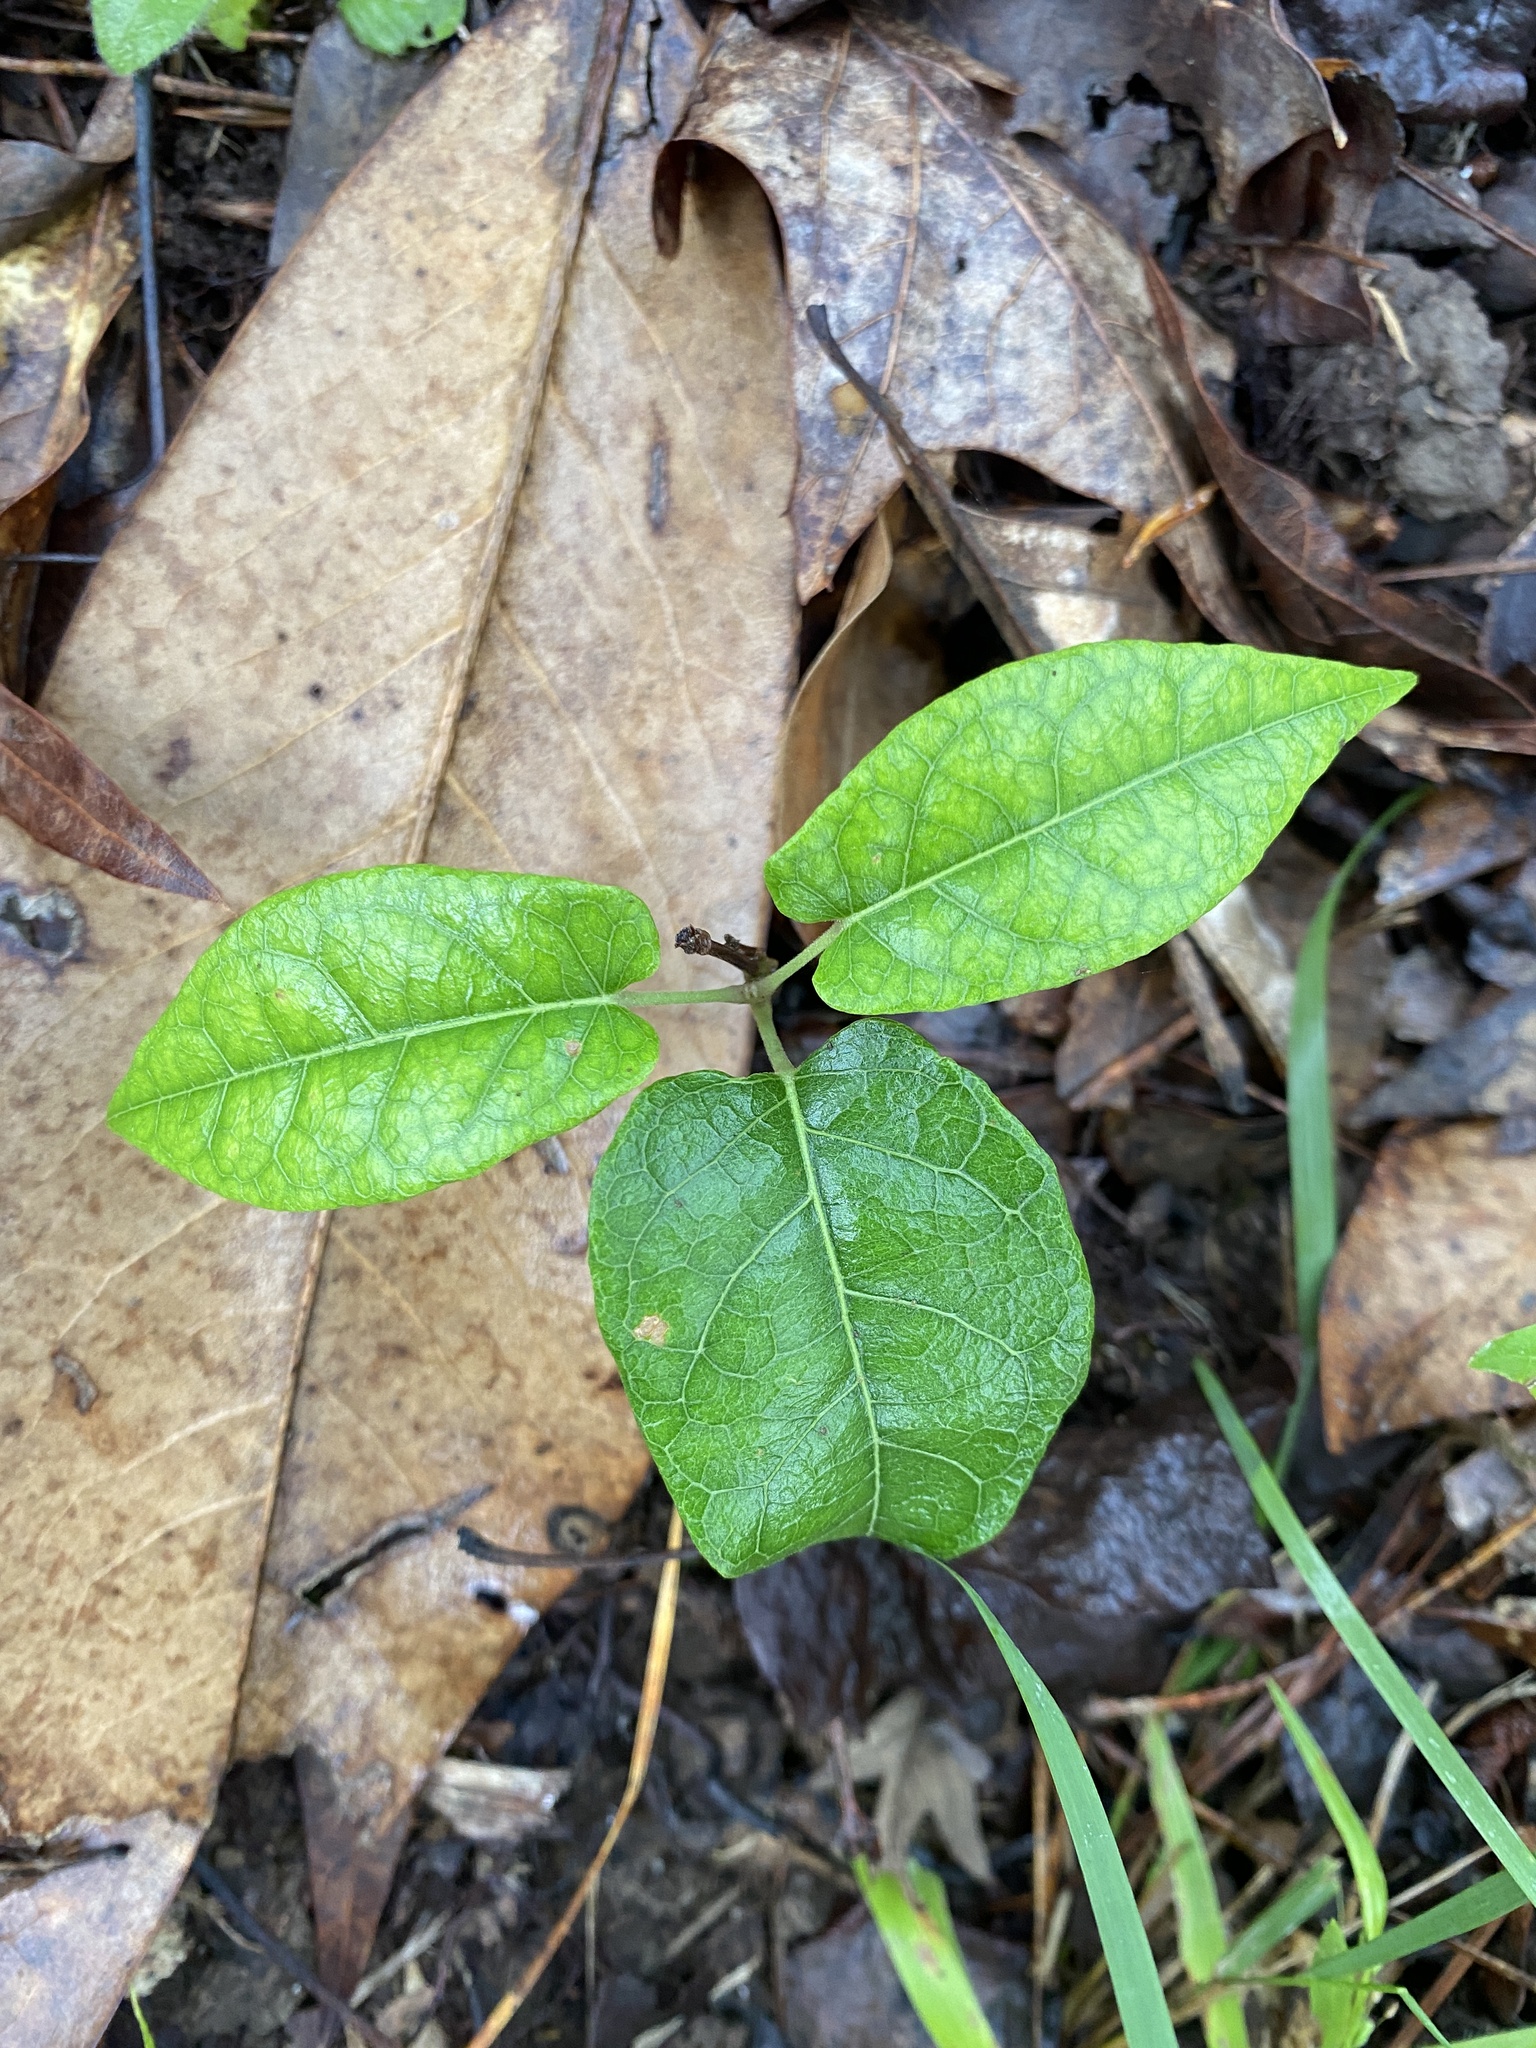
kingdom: Plantae
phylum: Tracheophyta
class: Magnoliopsida
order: Lamiales
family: Bignoniaceae
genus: Bignonia
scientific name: Bignonia capreolata
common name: Crossvine
